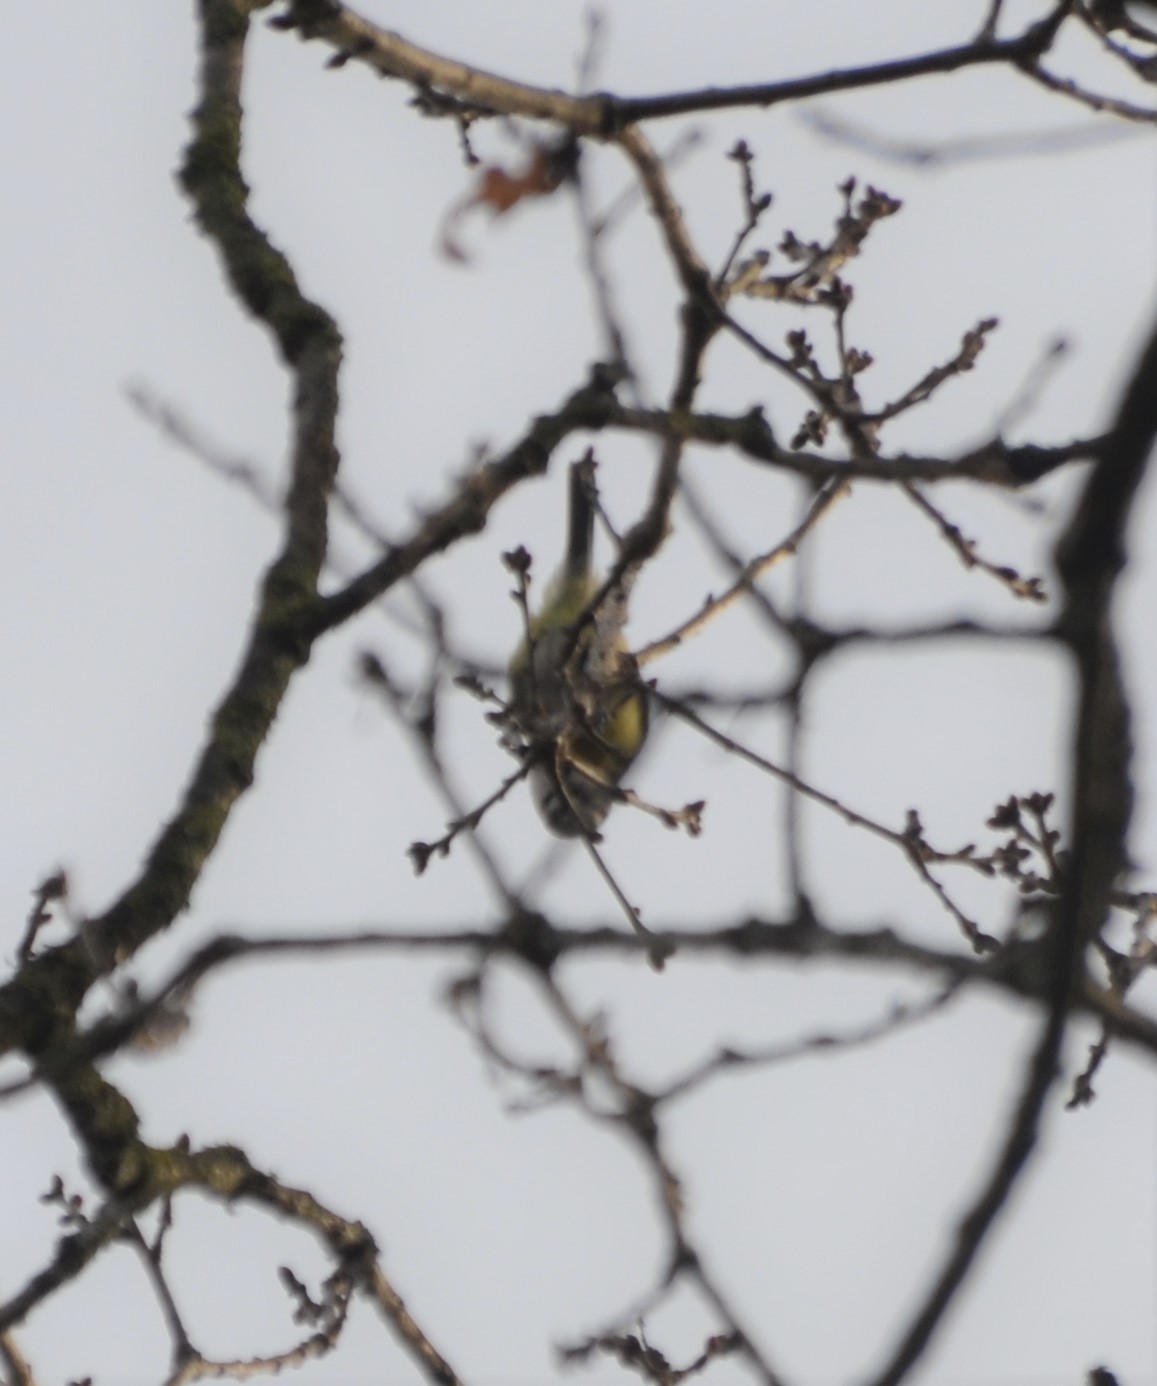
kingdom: Animalia
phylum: Chordata
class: Aves
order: Passeriformes
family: Paridae
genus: Cyanistes
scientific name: Cyanistes caeruleus
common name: Eurasian blue tit
